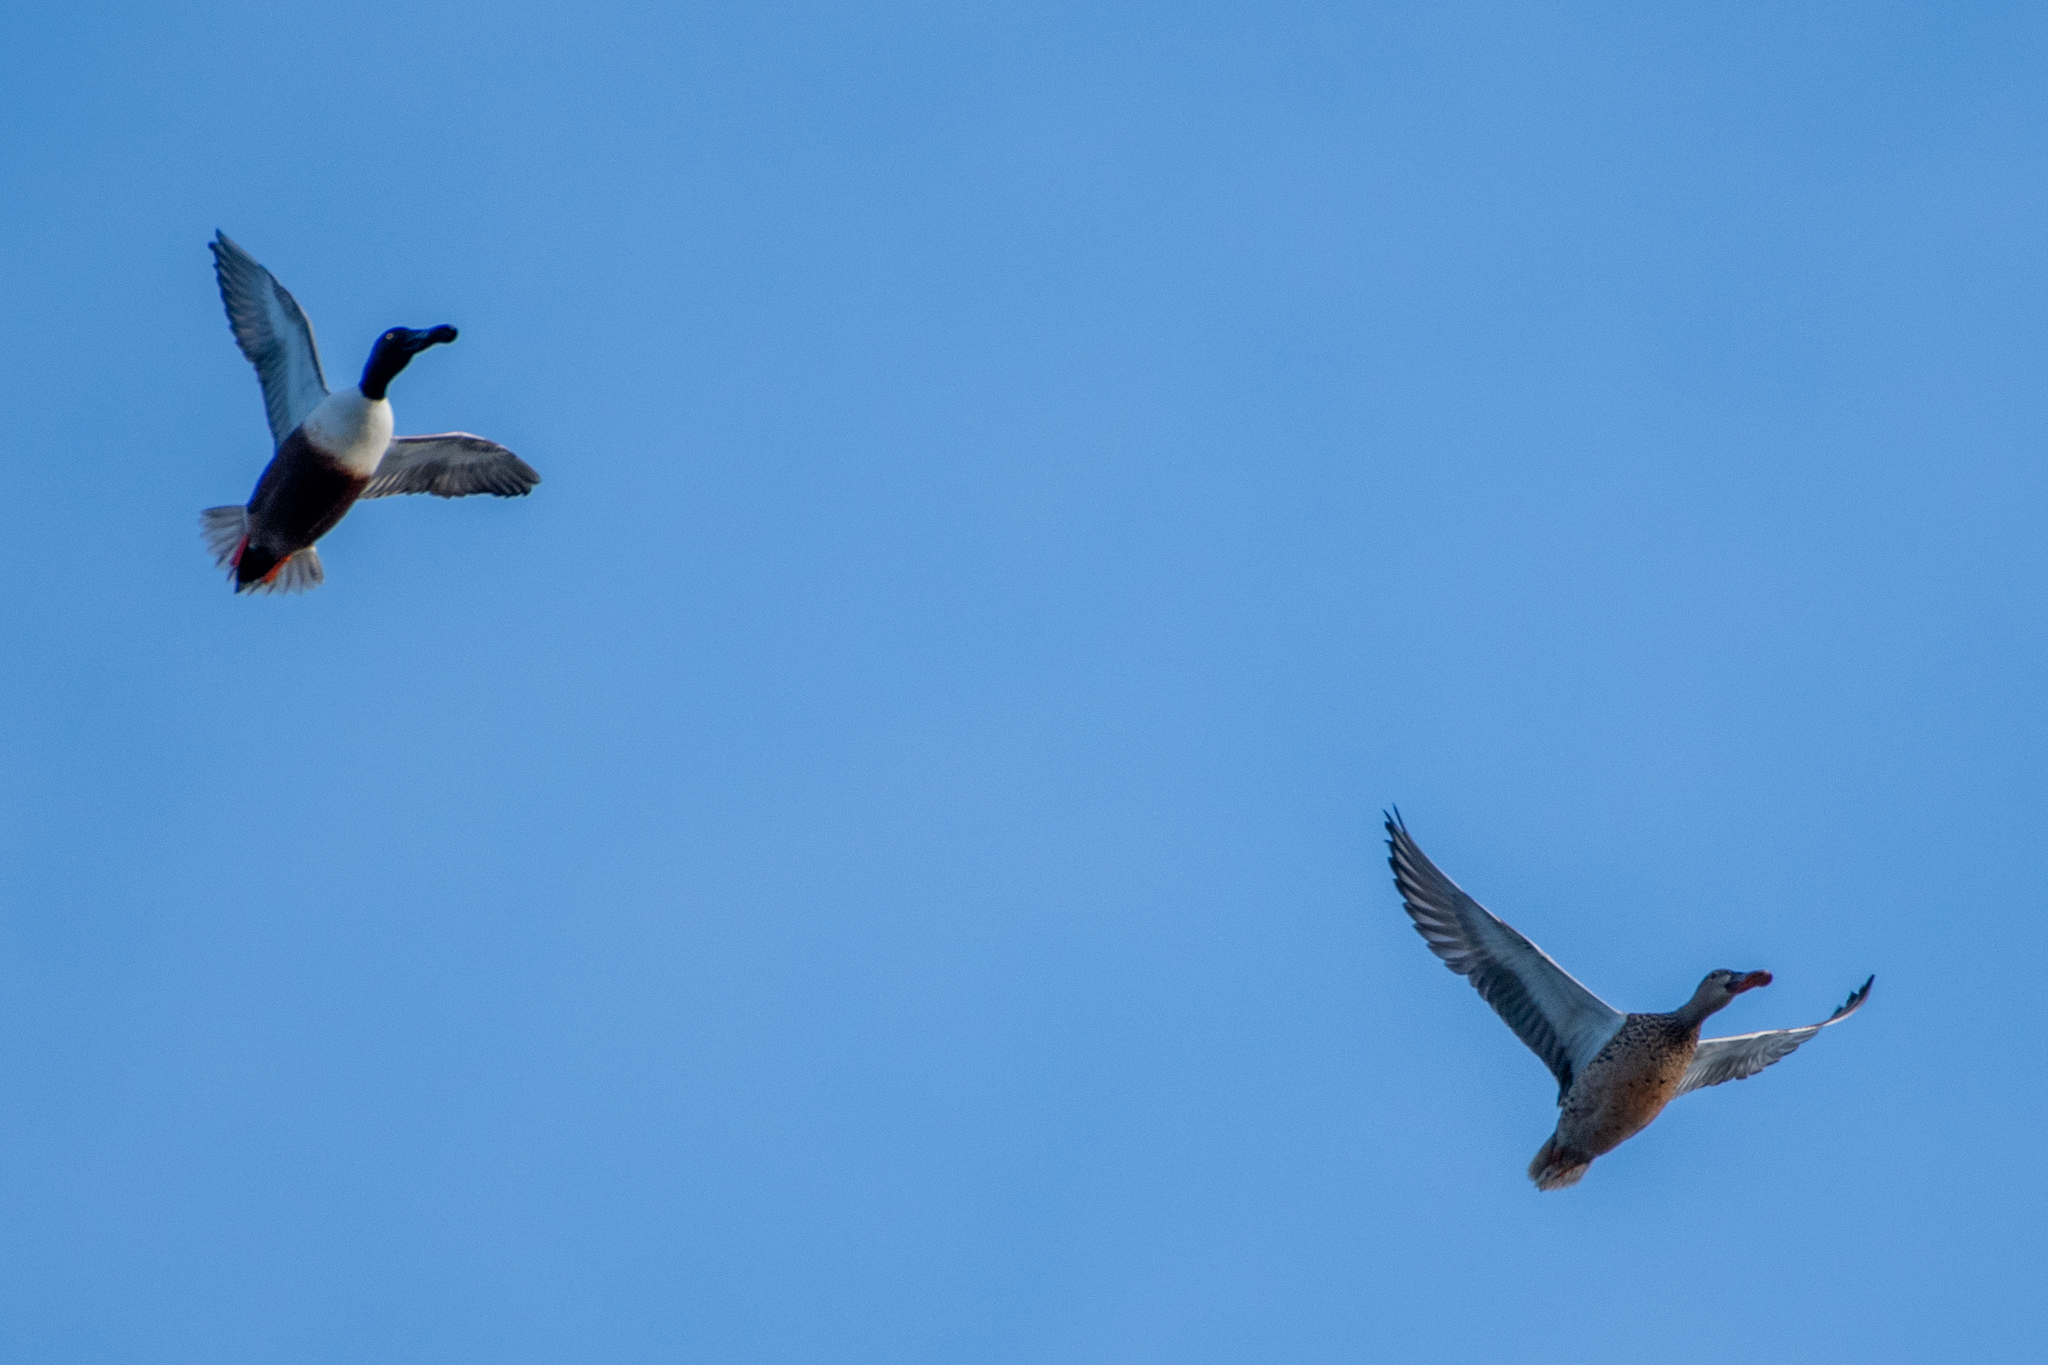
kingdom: Animalia
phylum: Chordata
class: Aves
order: Anseriformes
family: Anatidae
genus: Spatula
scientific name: Spatula clypeata
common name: Northern shoveler
